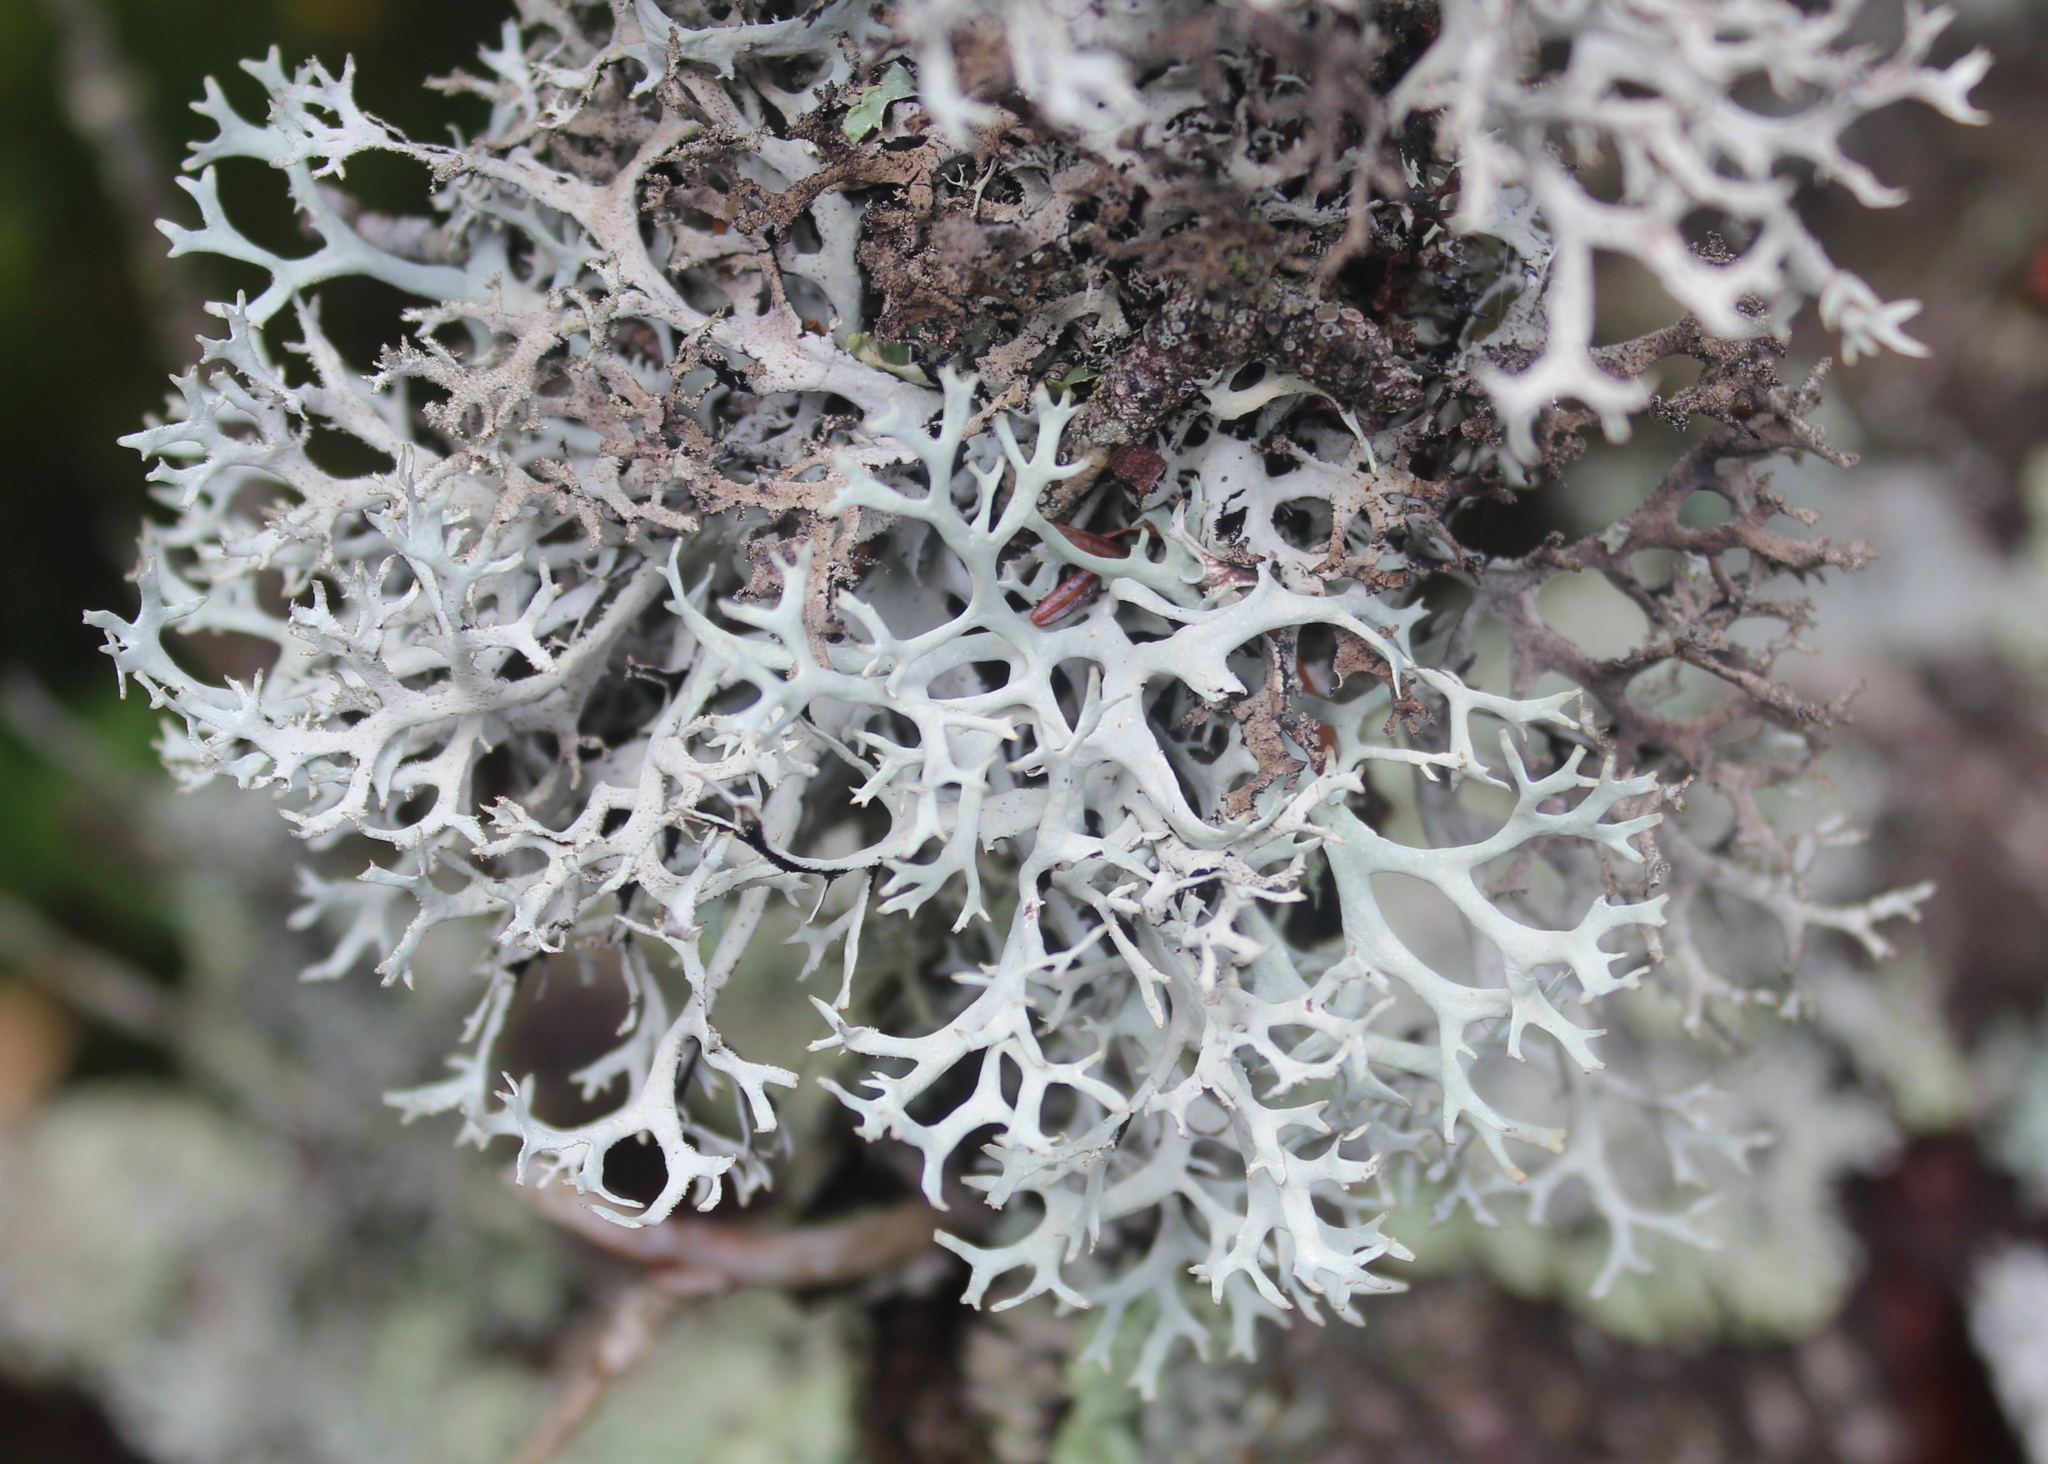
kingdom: Fungi
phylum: Ascomycota
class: Lecanoromycetes
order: Lecanorales
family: Parmeliaceae
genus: Pseudevernia
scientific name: Pseudevernia consocians
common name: Common antler lichen
